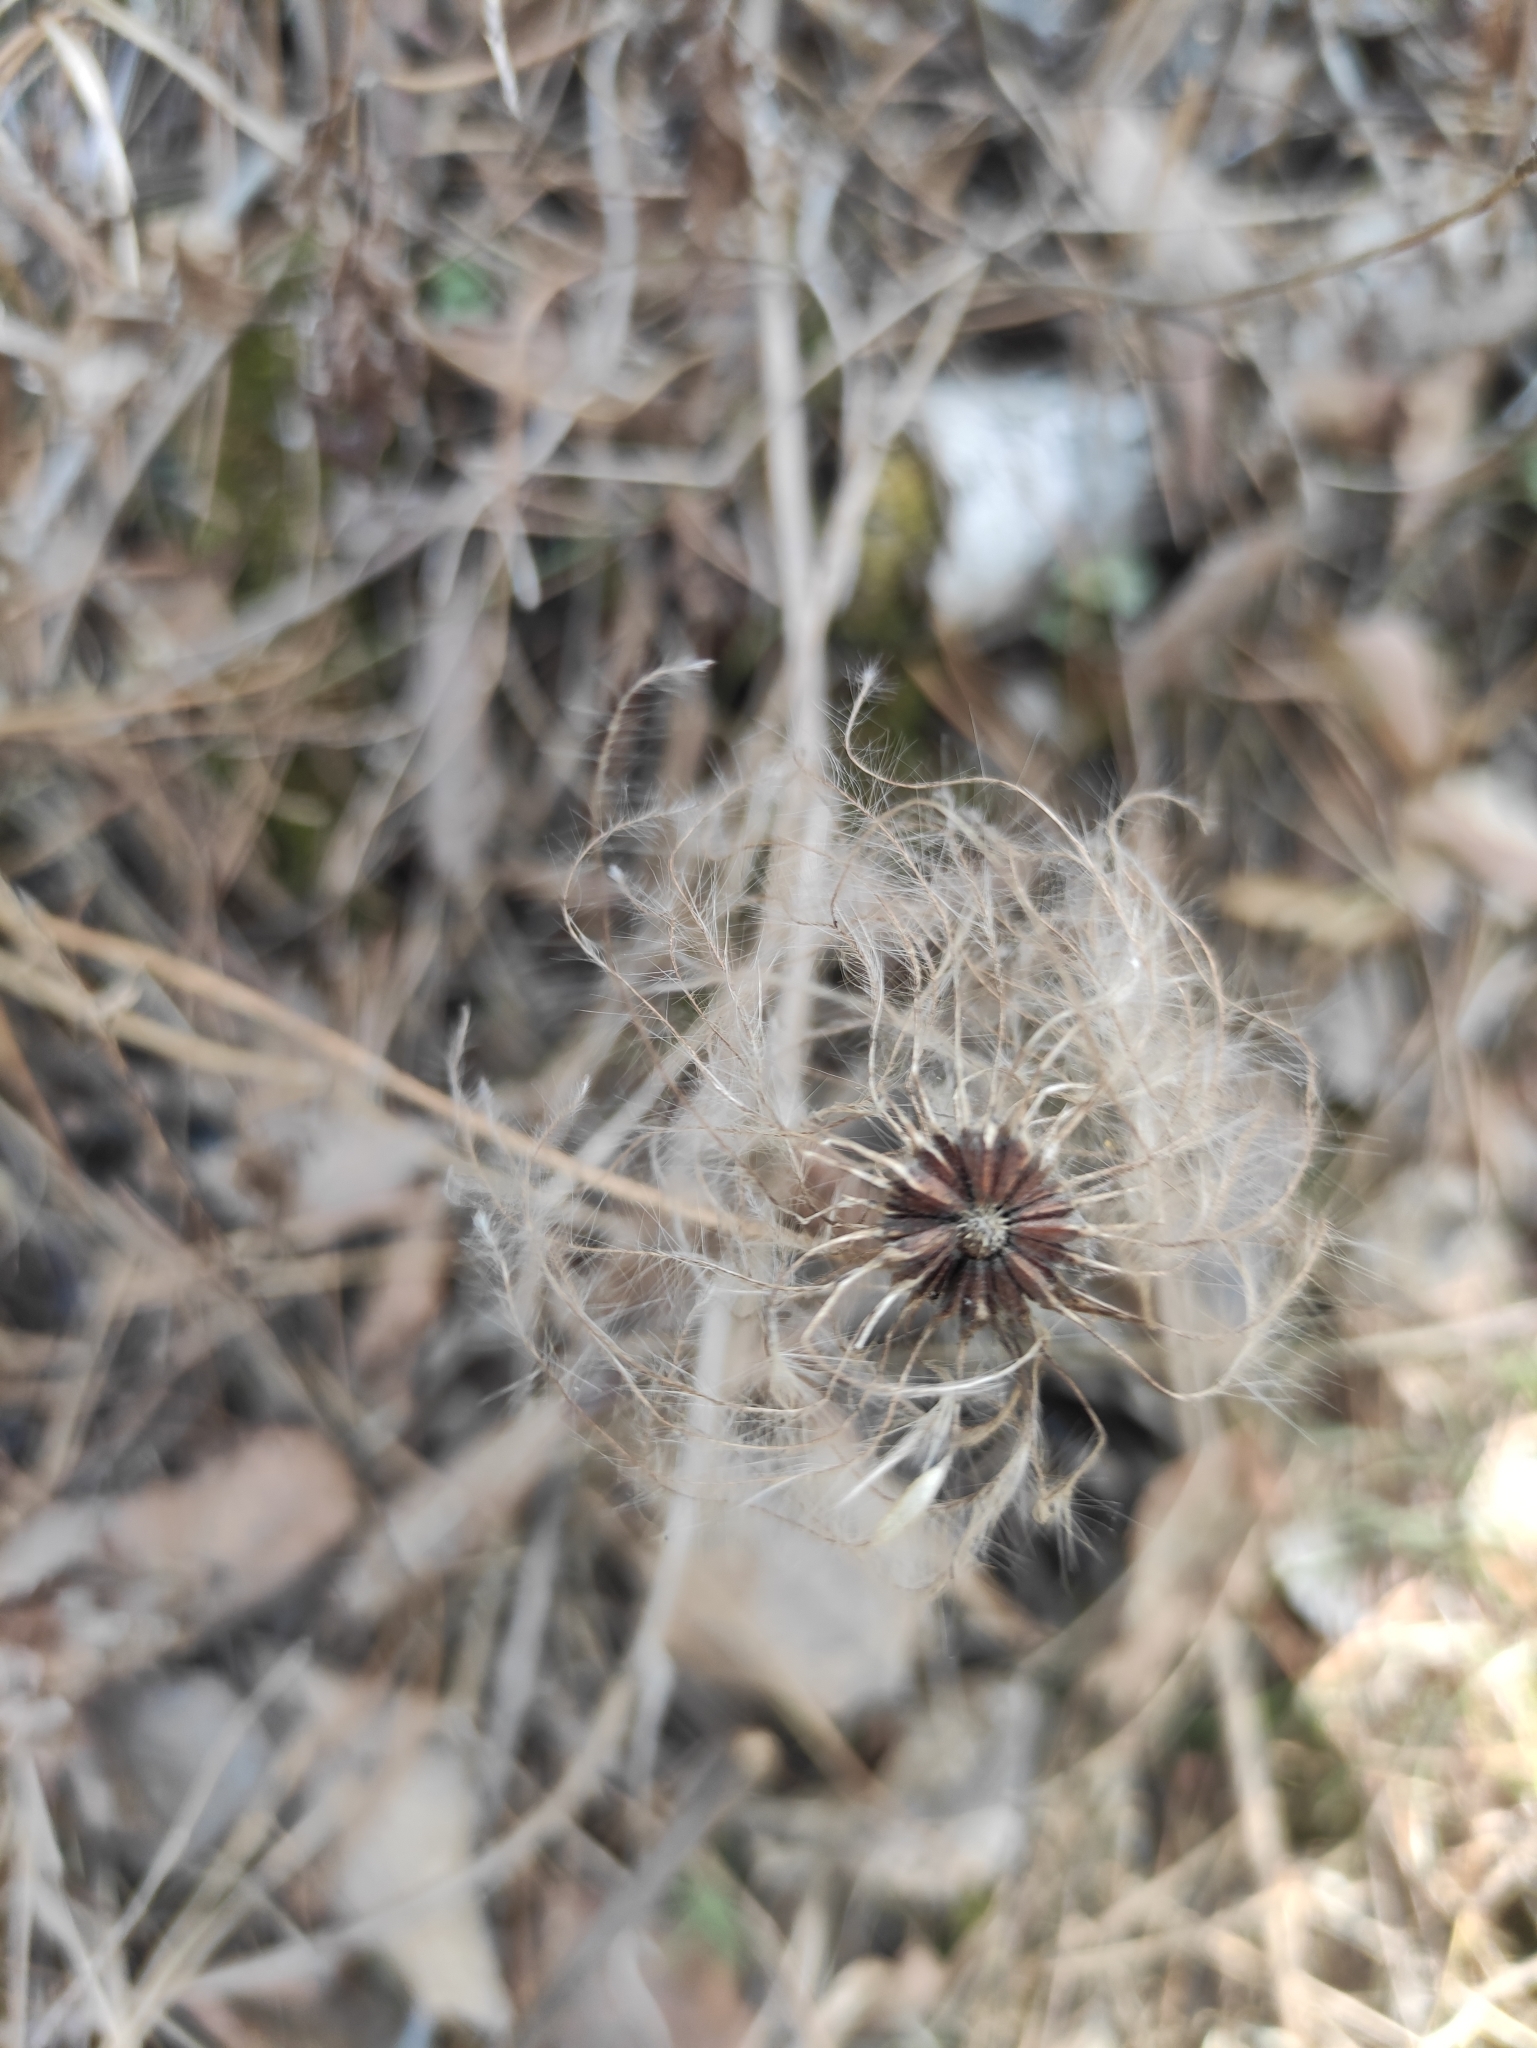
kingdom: Plantae
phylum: Tracheophyta
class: Magnoliopsida
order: Ranunculales
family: Ranunculaceae
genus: Clematis
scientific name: Clematis sibirica
